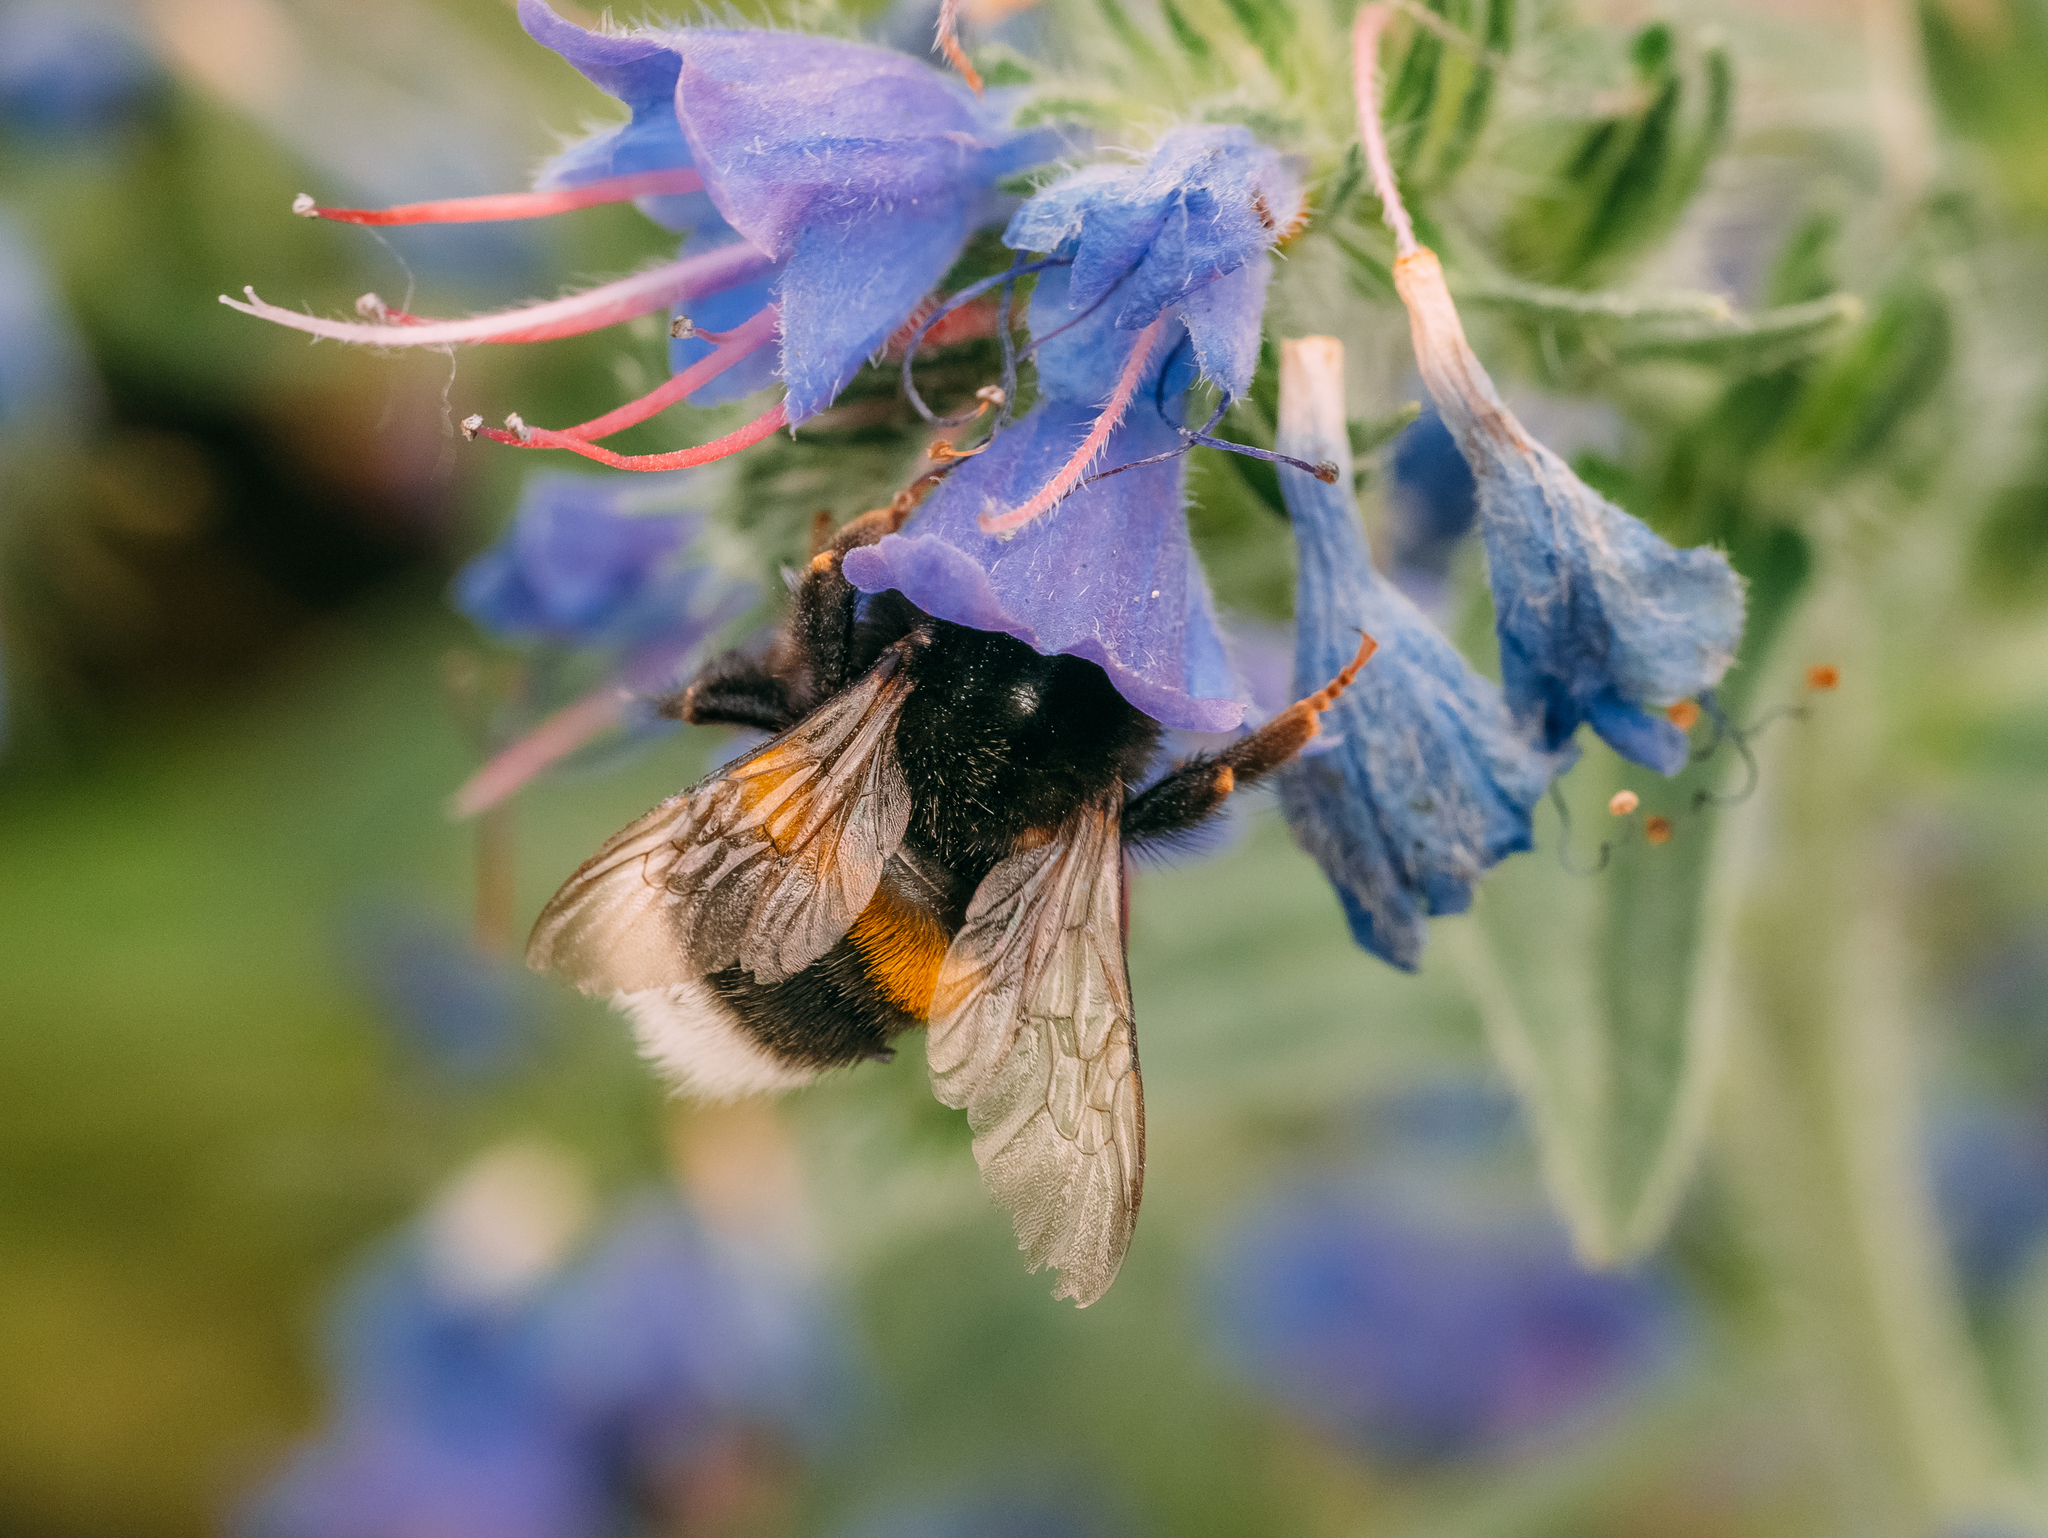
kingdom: Animalia
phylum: Arthropoda
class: Insecta
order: Hymenoptera
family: Apidae
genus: Bombus
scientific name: Bombus terrestris
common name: Buff-tailed bumblebee
